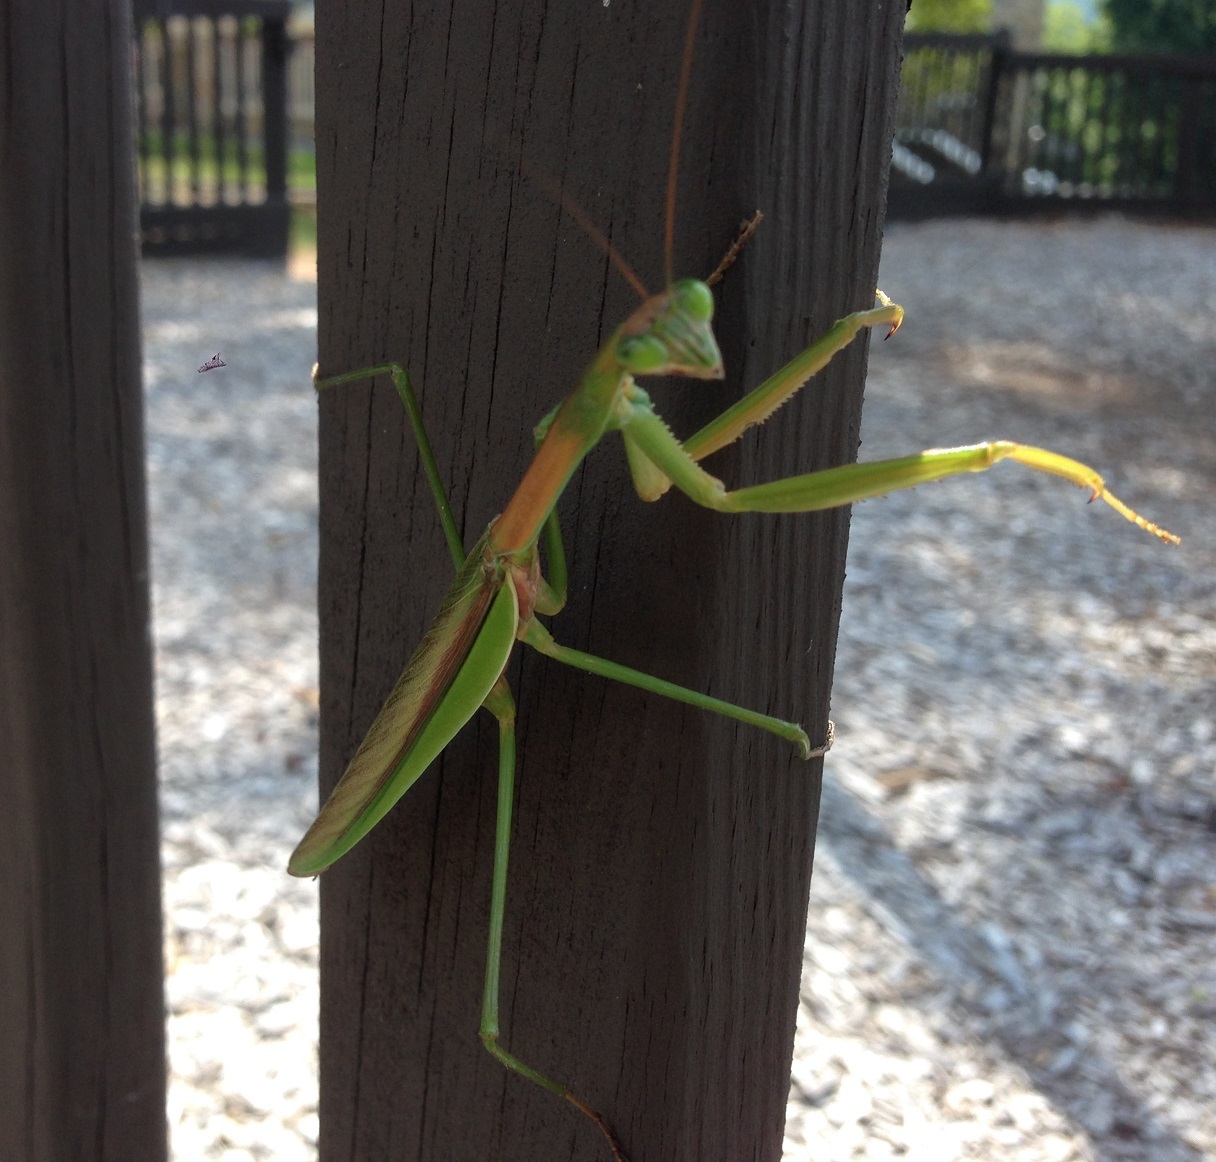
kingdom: Animalia
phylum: Arthropoda
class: Insecta
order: Mantodea
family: Mantidae
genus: Tenodera
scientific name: Tenodera sinensis
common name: Chinese mantis
